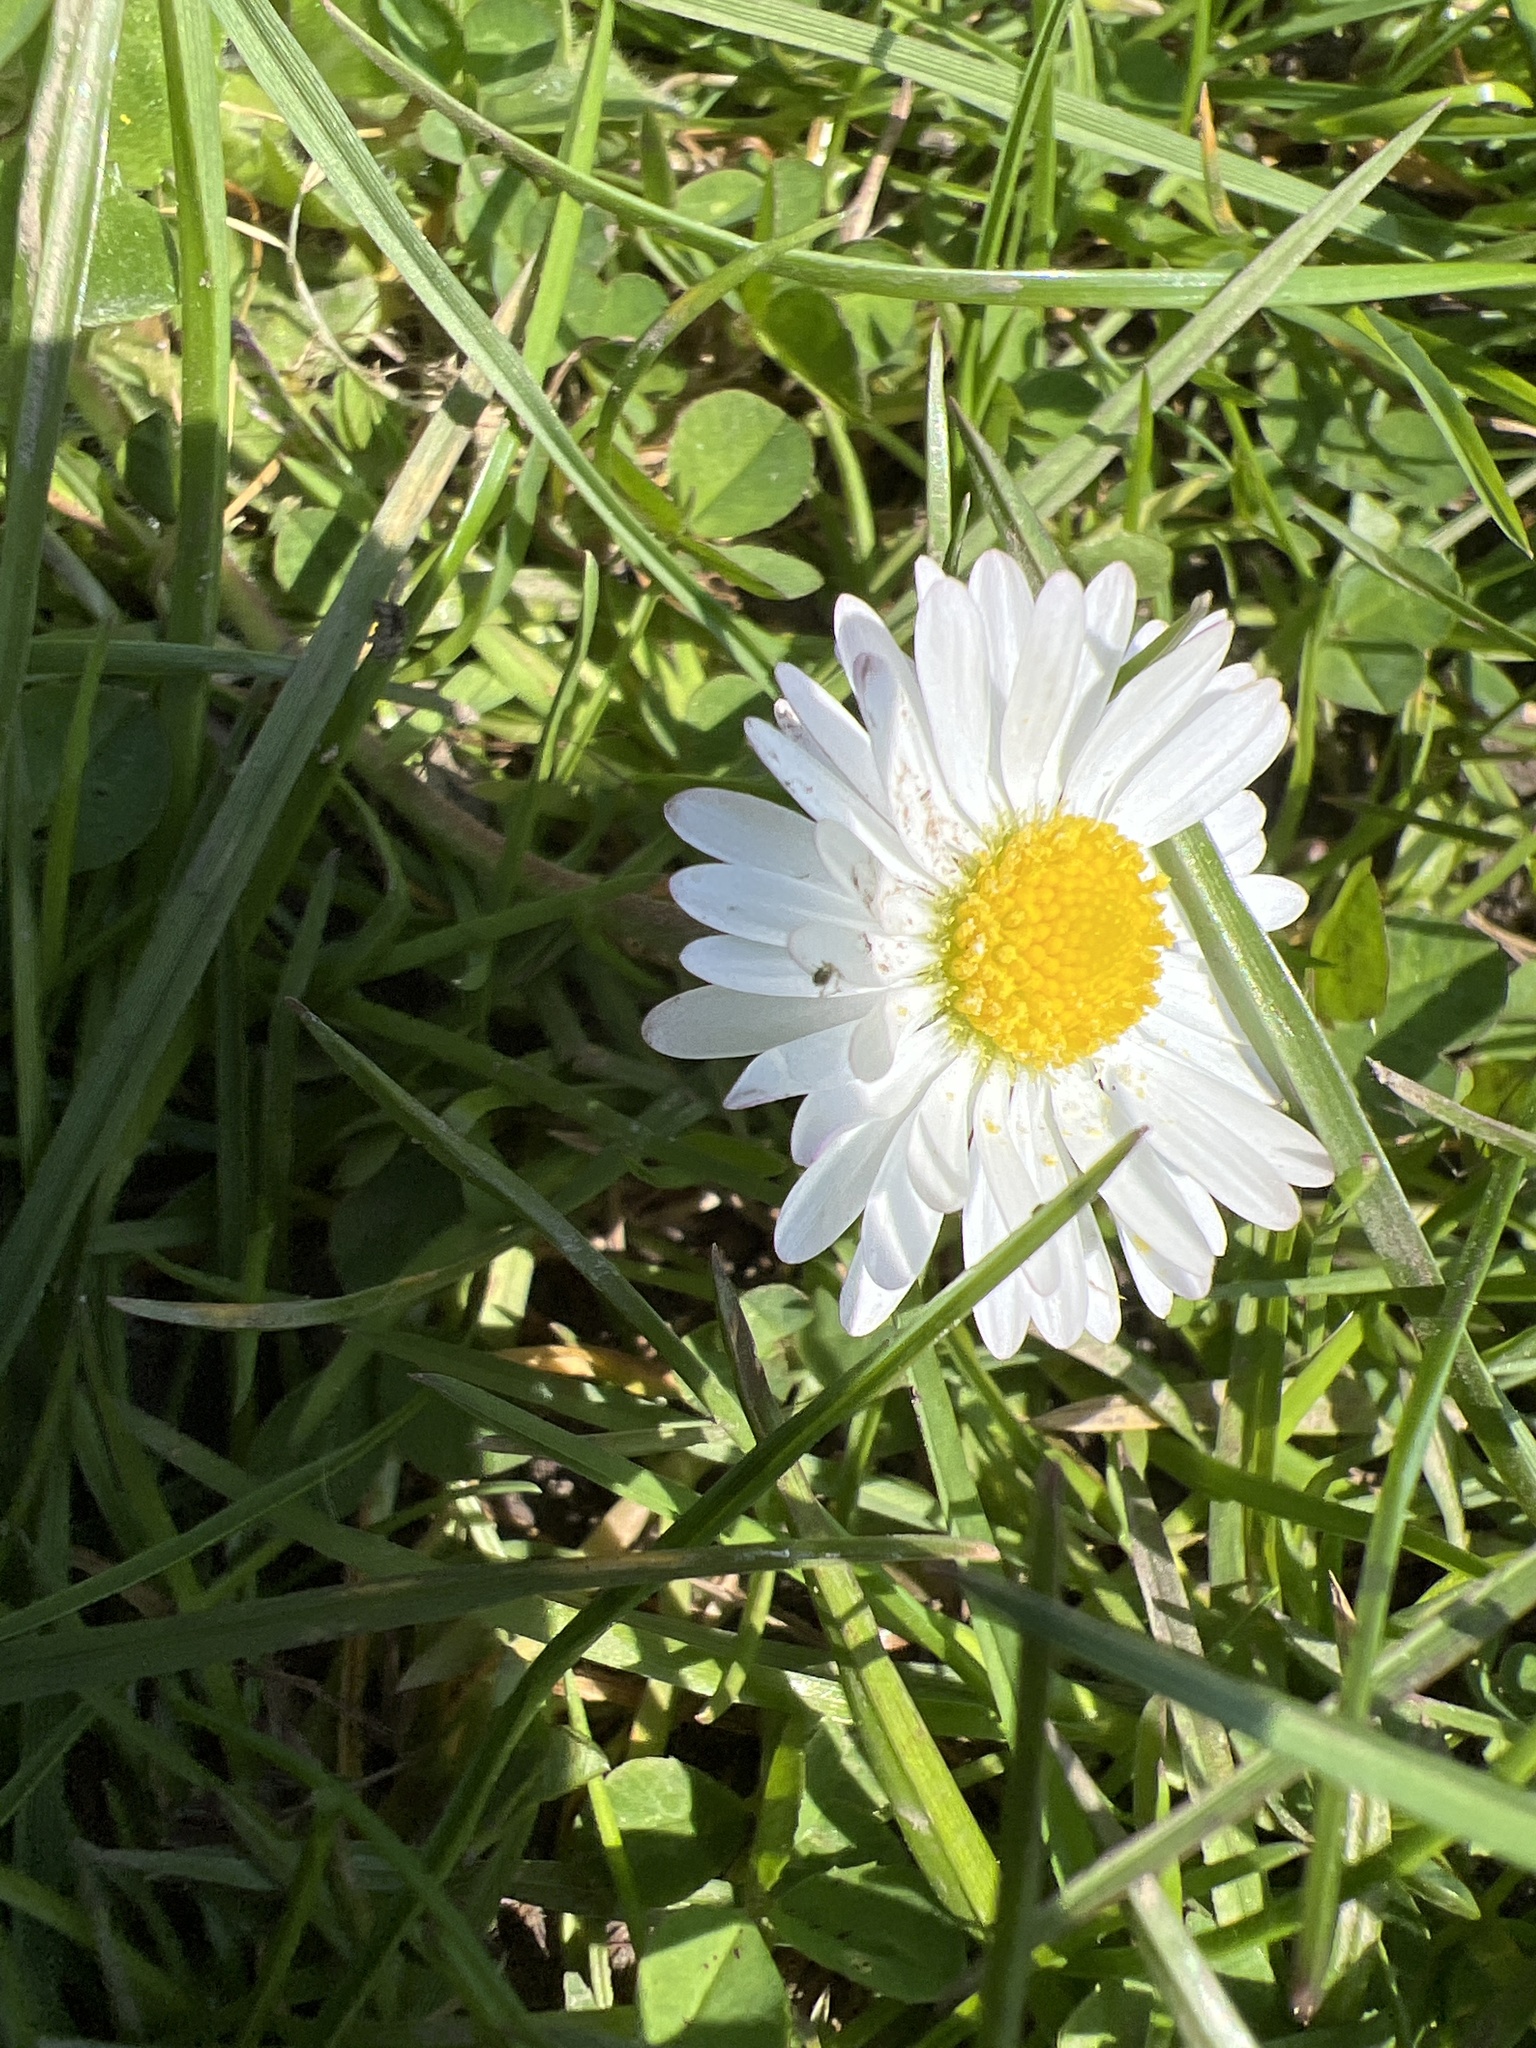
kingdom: Plantae
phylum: Tracheophyta
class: Magnoliopsida
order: Asterales
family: Asteraceae
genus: Bellis
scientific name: Bellis perennis
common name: Lawndaisy
